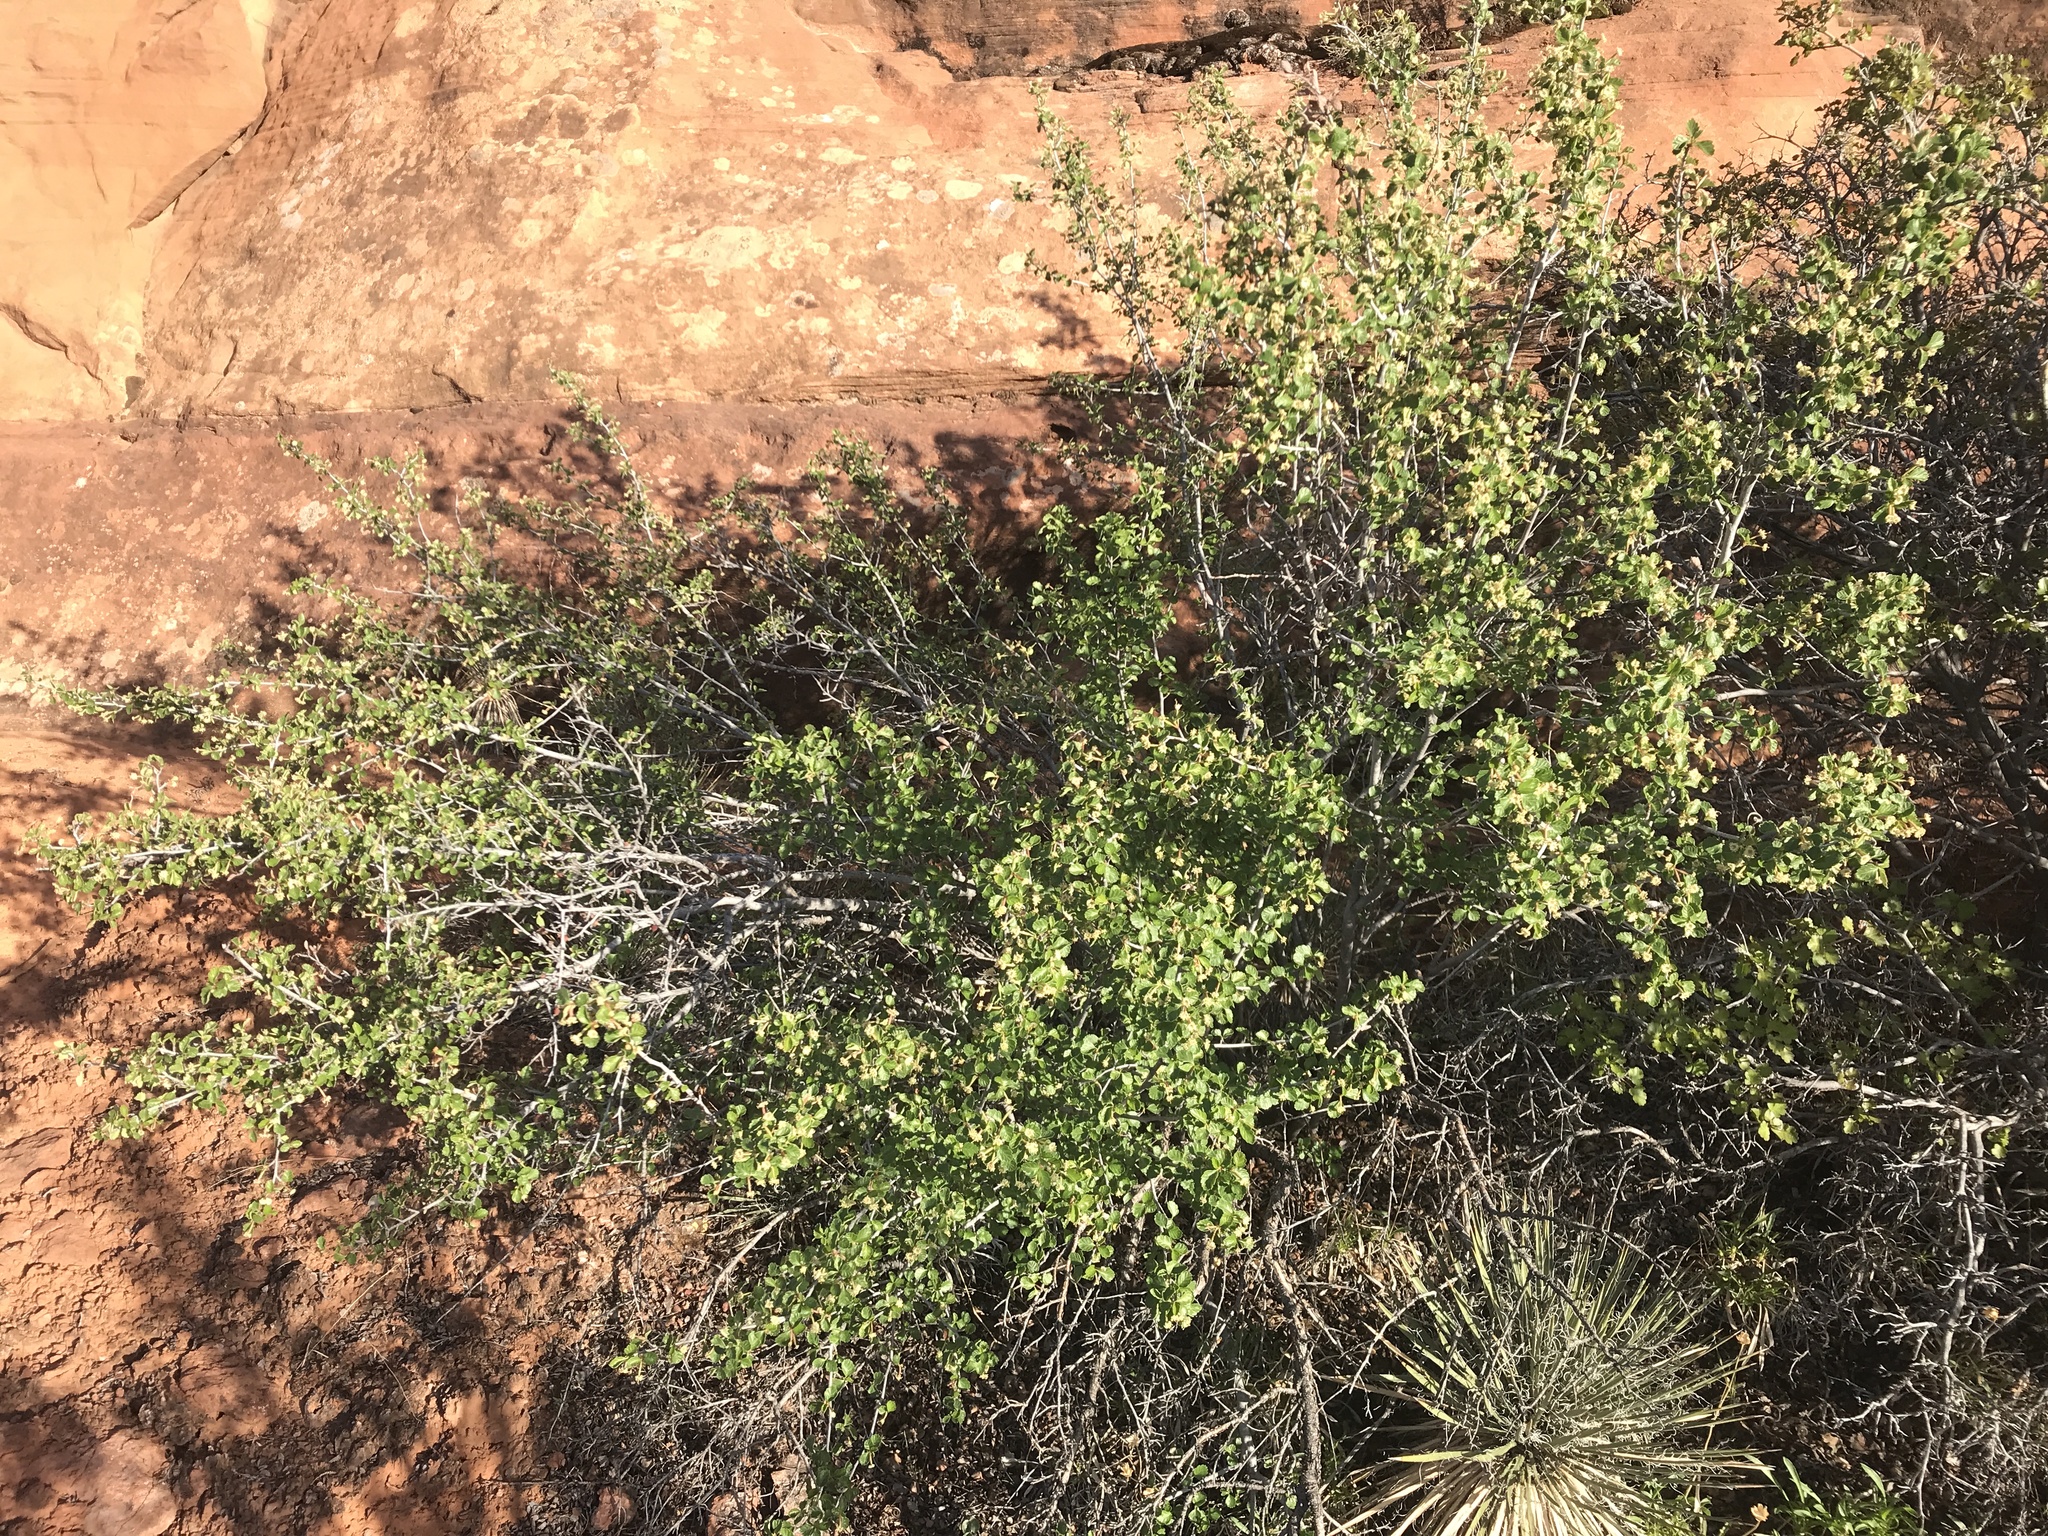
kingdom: Plantae
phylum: Tracheophyta
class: Magnoliopsida
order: Rosales
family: Rosaceae
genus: Cercocarpus
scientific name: Cercocarpus montanus
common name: Alder-leaf cercocarpus
